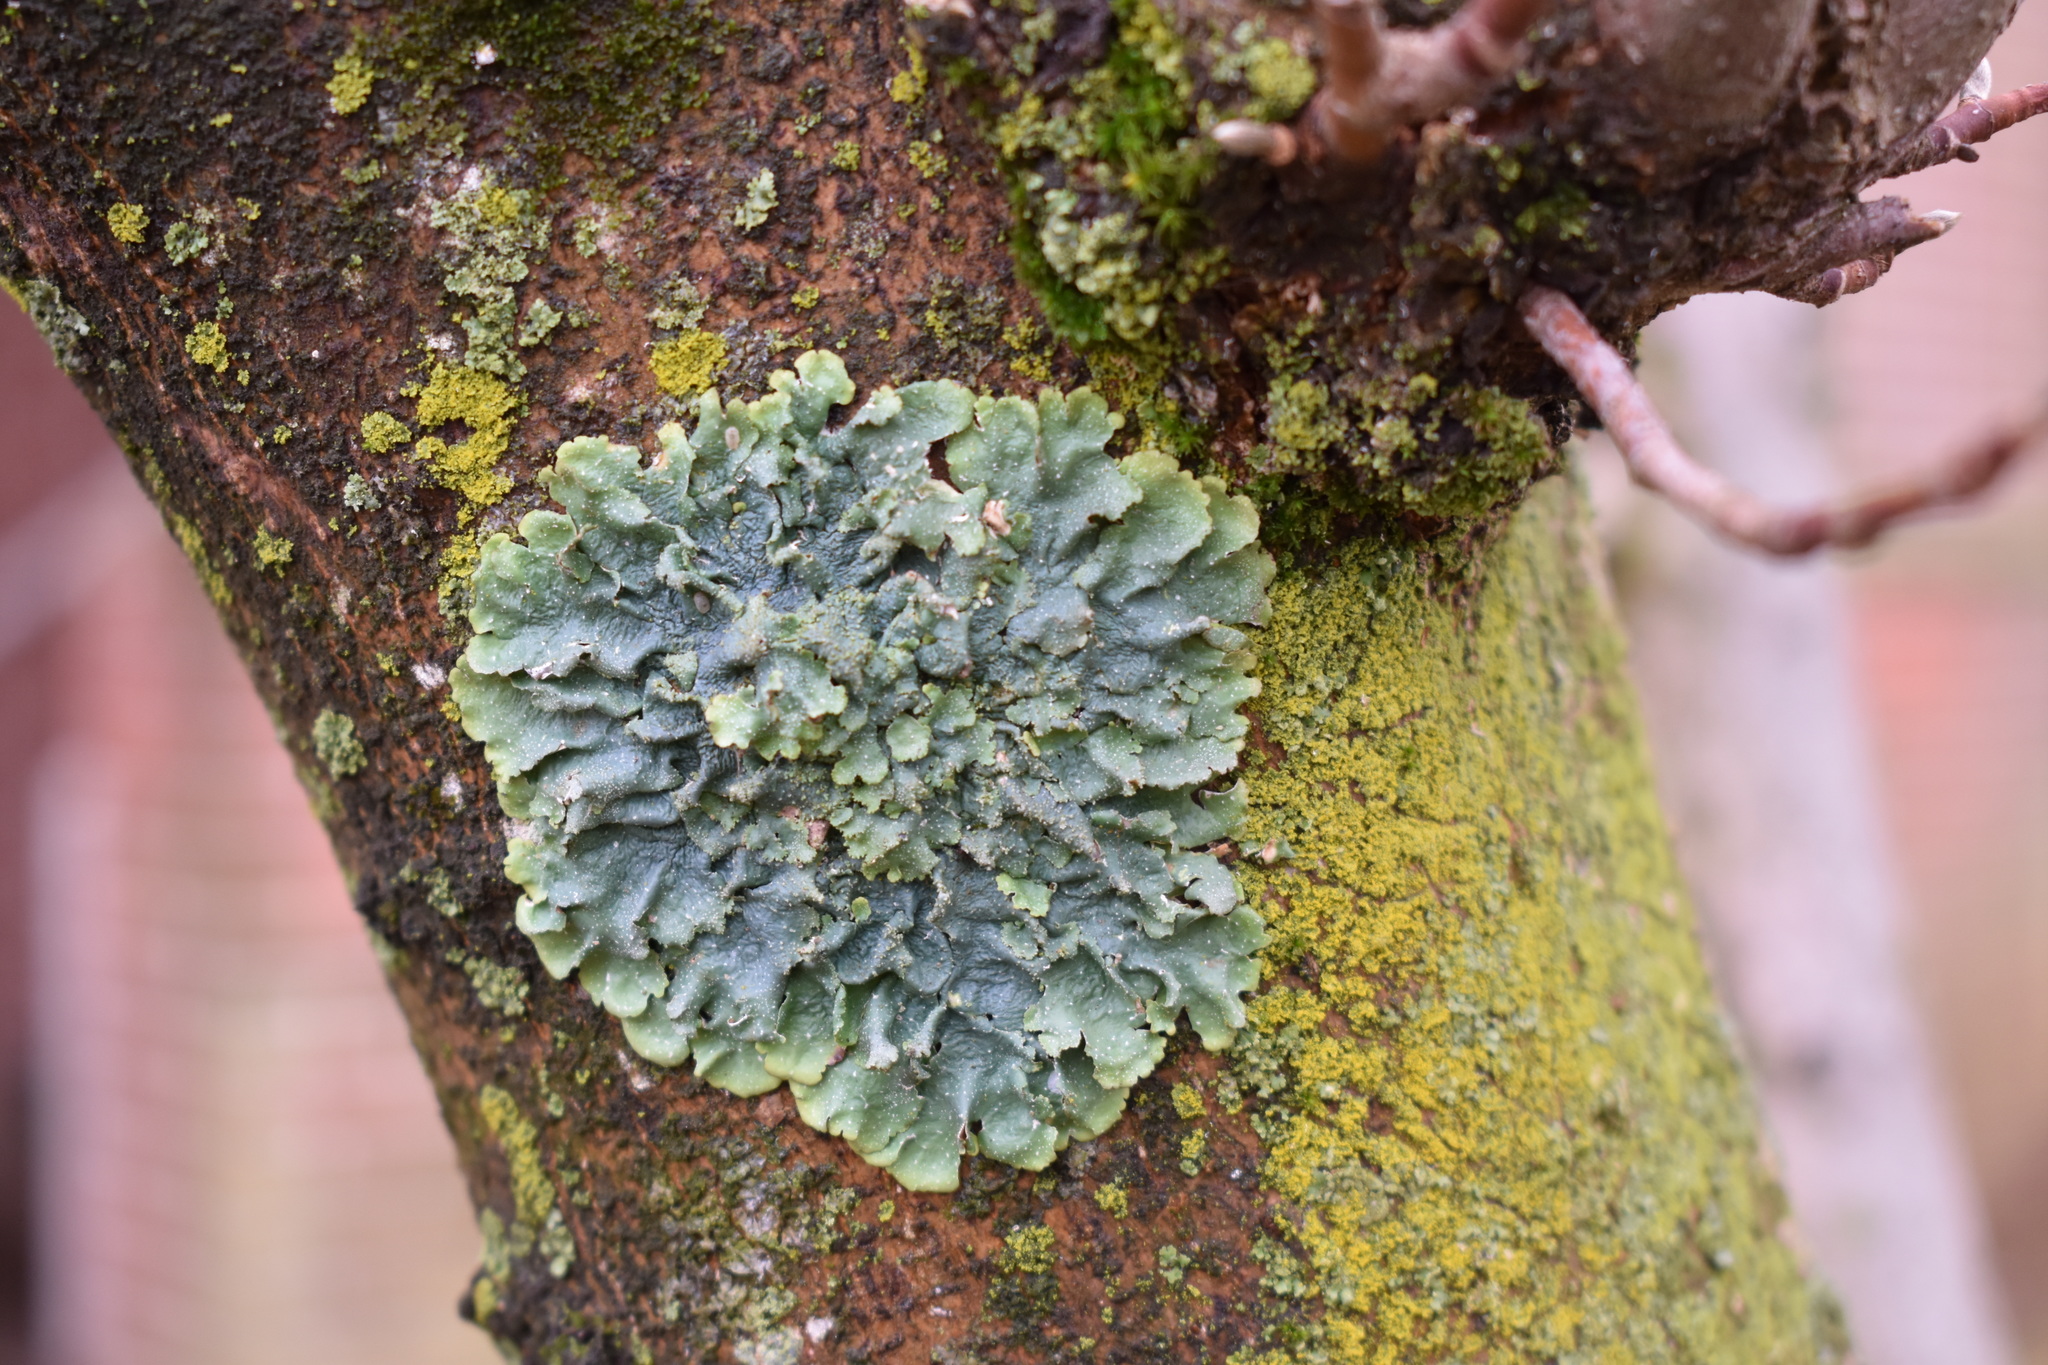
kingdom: Fungi
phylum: Ascomycota
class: Lecanoromycetes
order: Lecanorales
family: Parmeliaceae
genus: Punctelia
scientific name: Punctelia rudecta
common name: Rough speckled shield lichen
